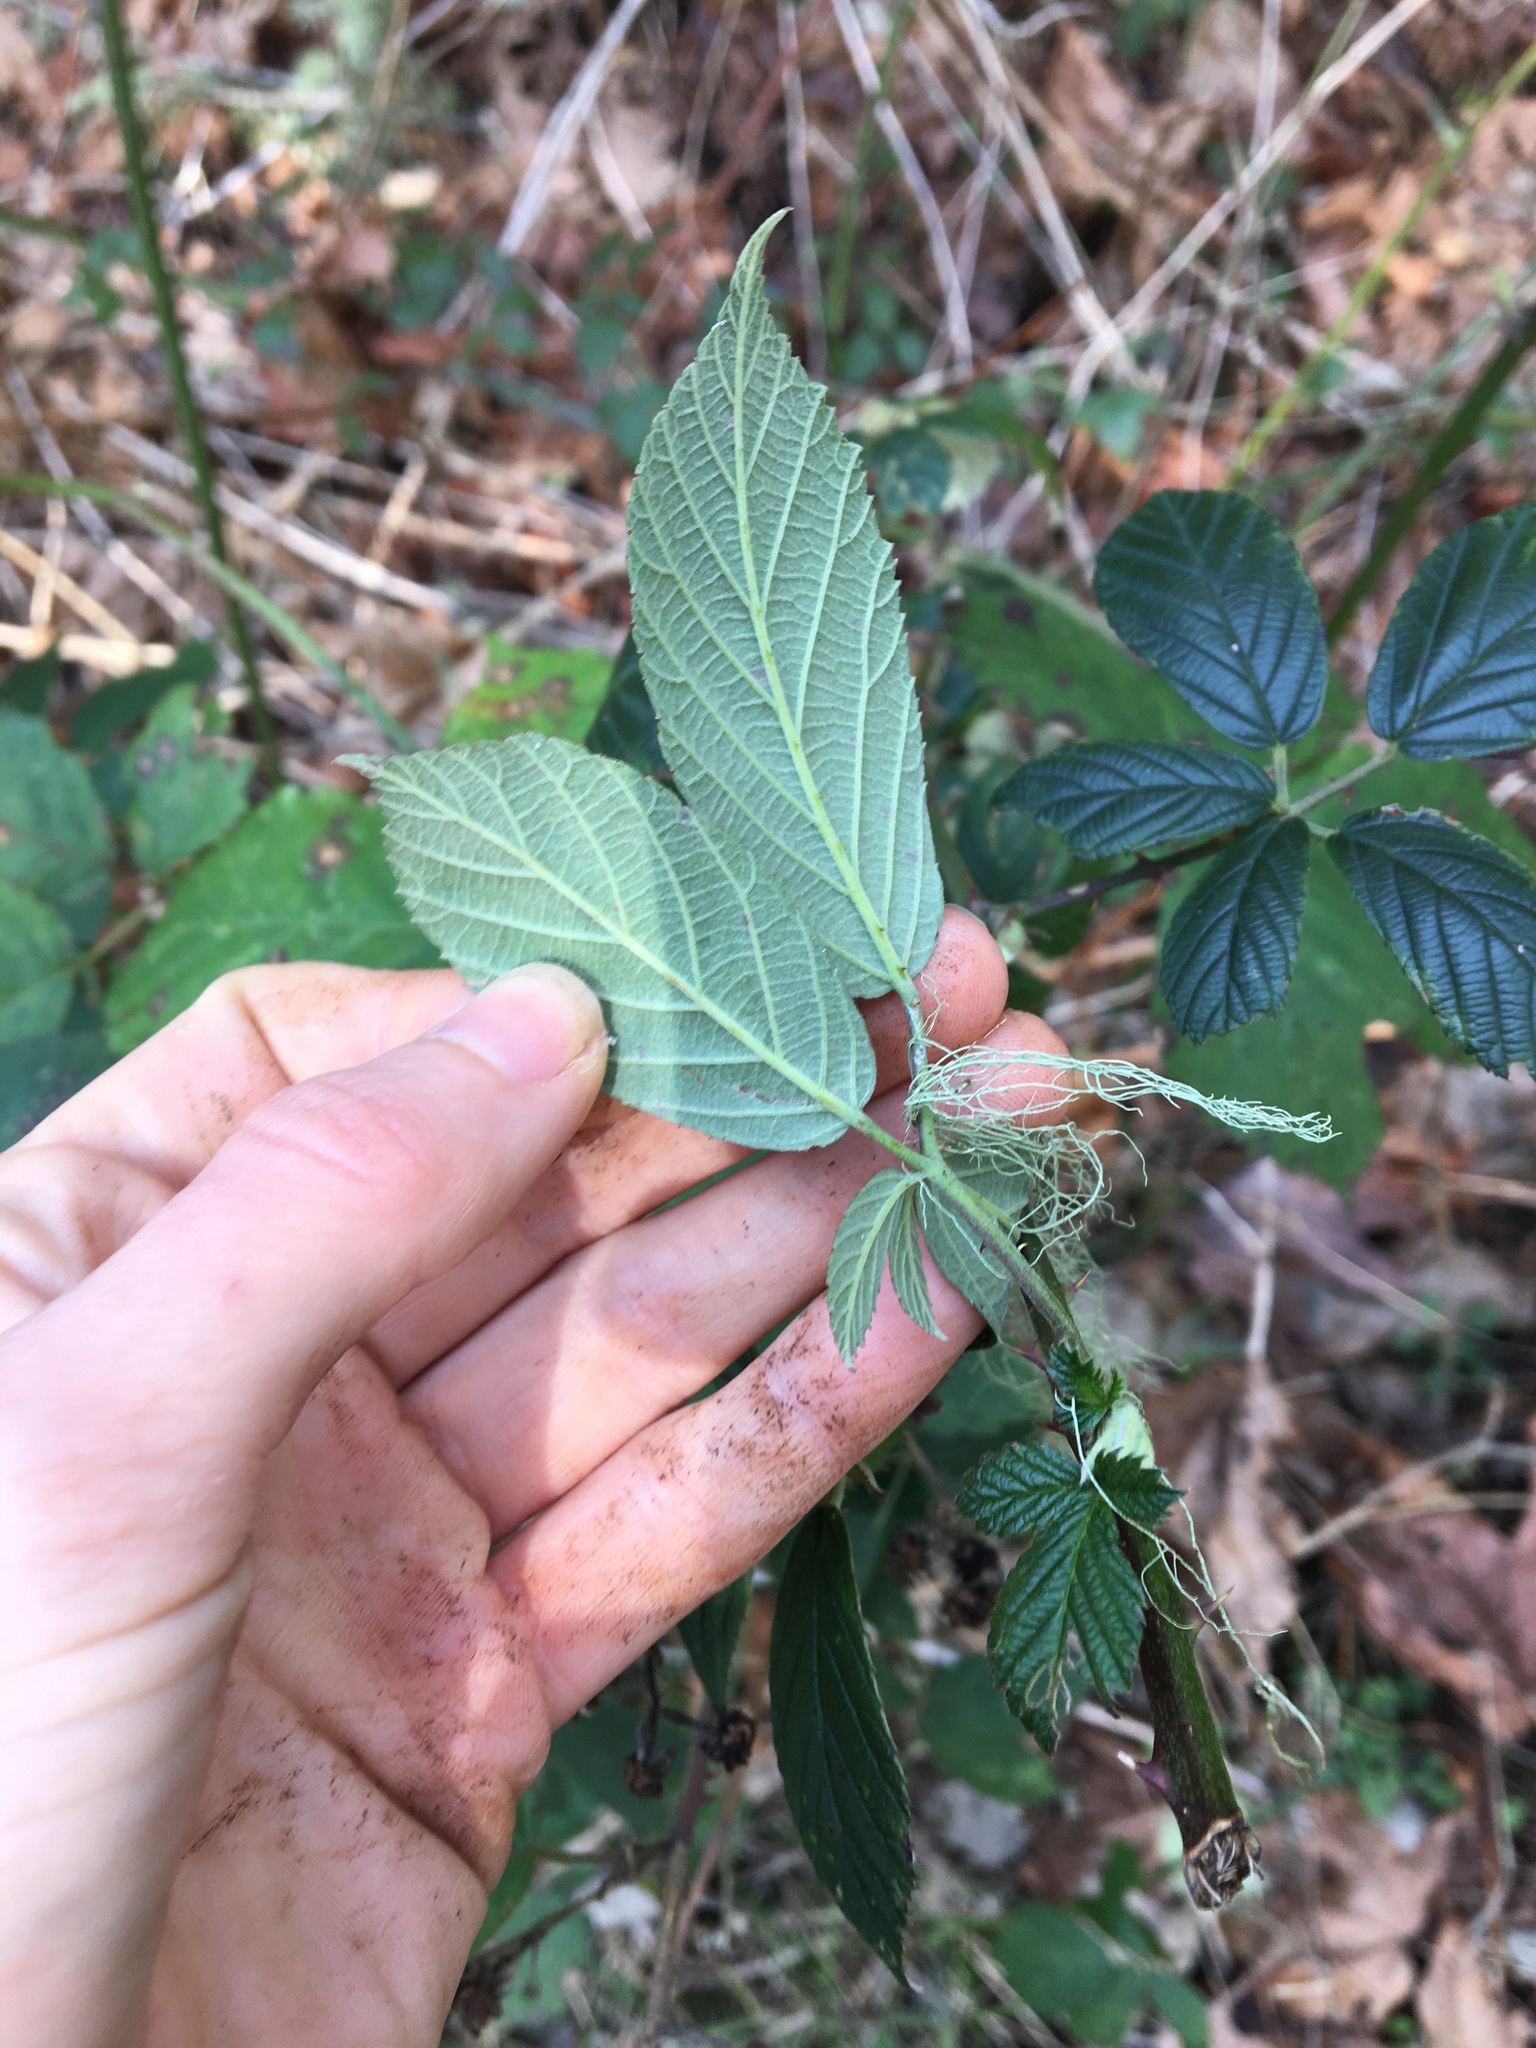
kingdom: Plantae
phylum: Tracheophyta
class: Magnoliopsida
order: Rosales
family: Rosaceae
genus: Rubus
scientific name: Rubus bifrons
